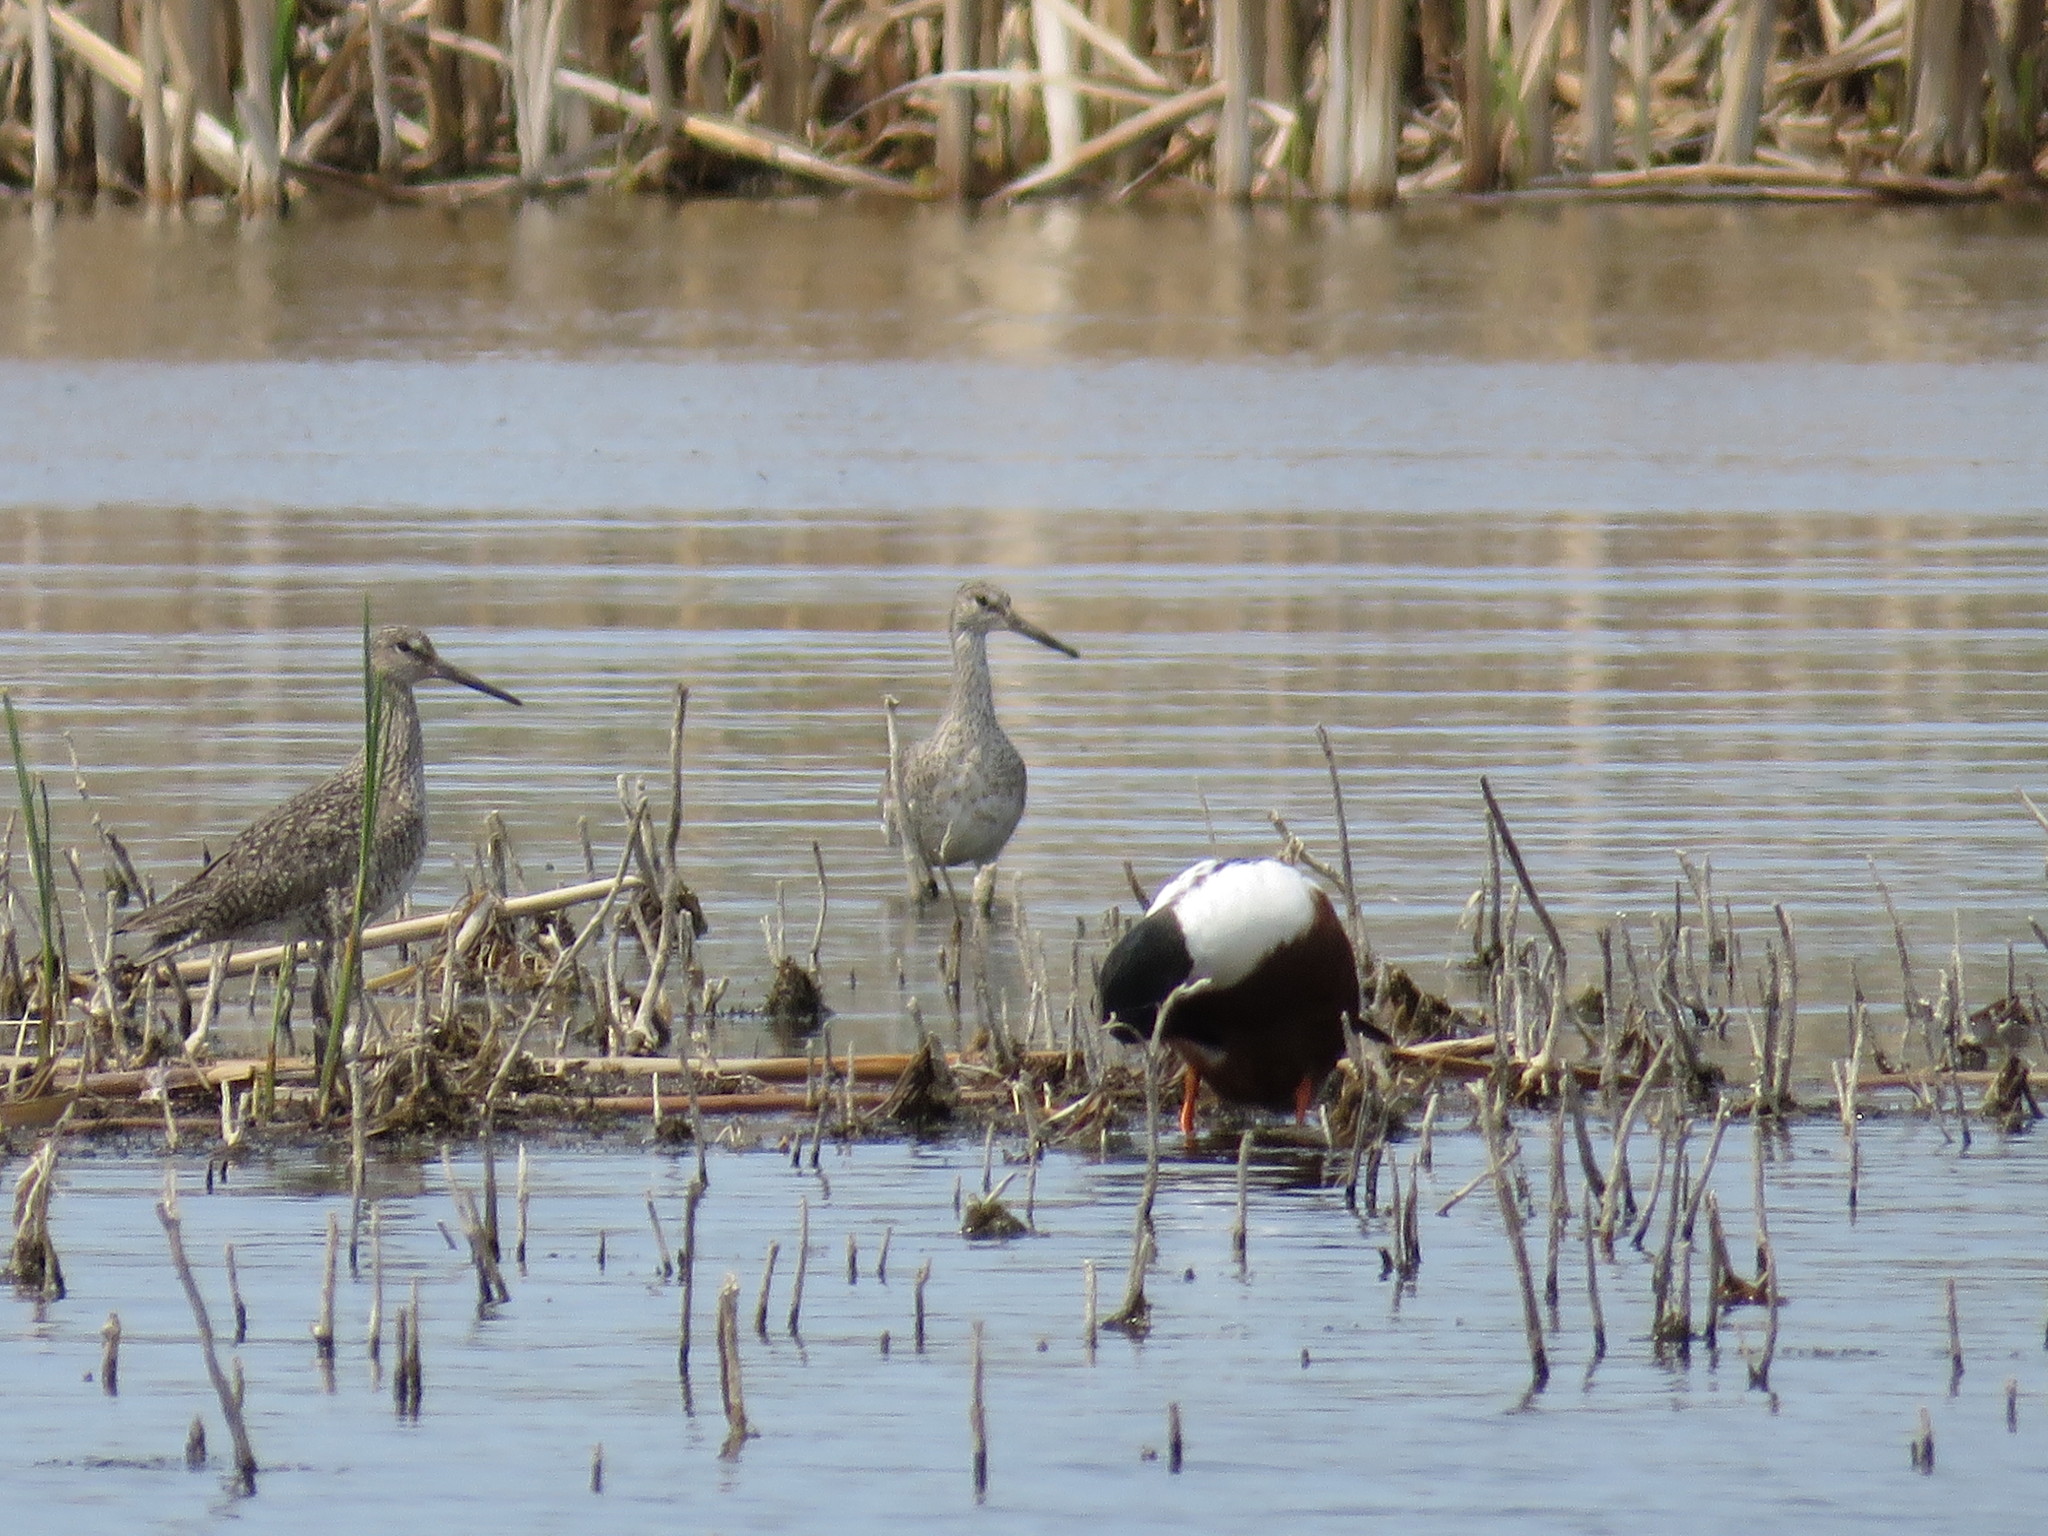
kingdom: Animalia
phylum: Chordata
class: Aves
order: Charadriiformes
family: Scolopacidae
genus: Tringa
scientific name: Tringa semipalmata
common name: Willet
